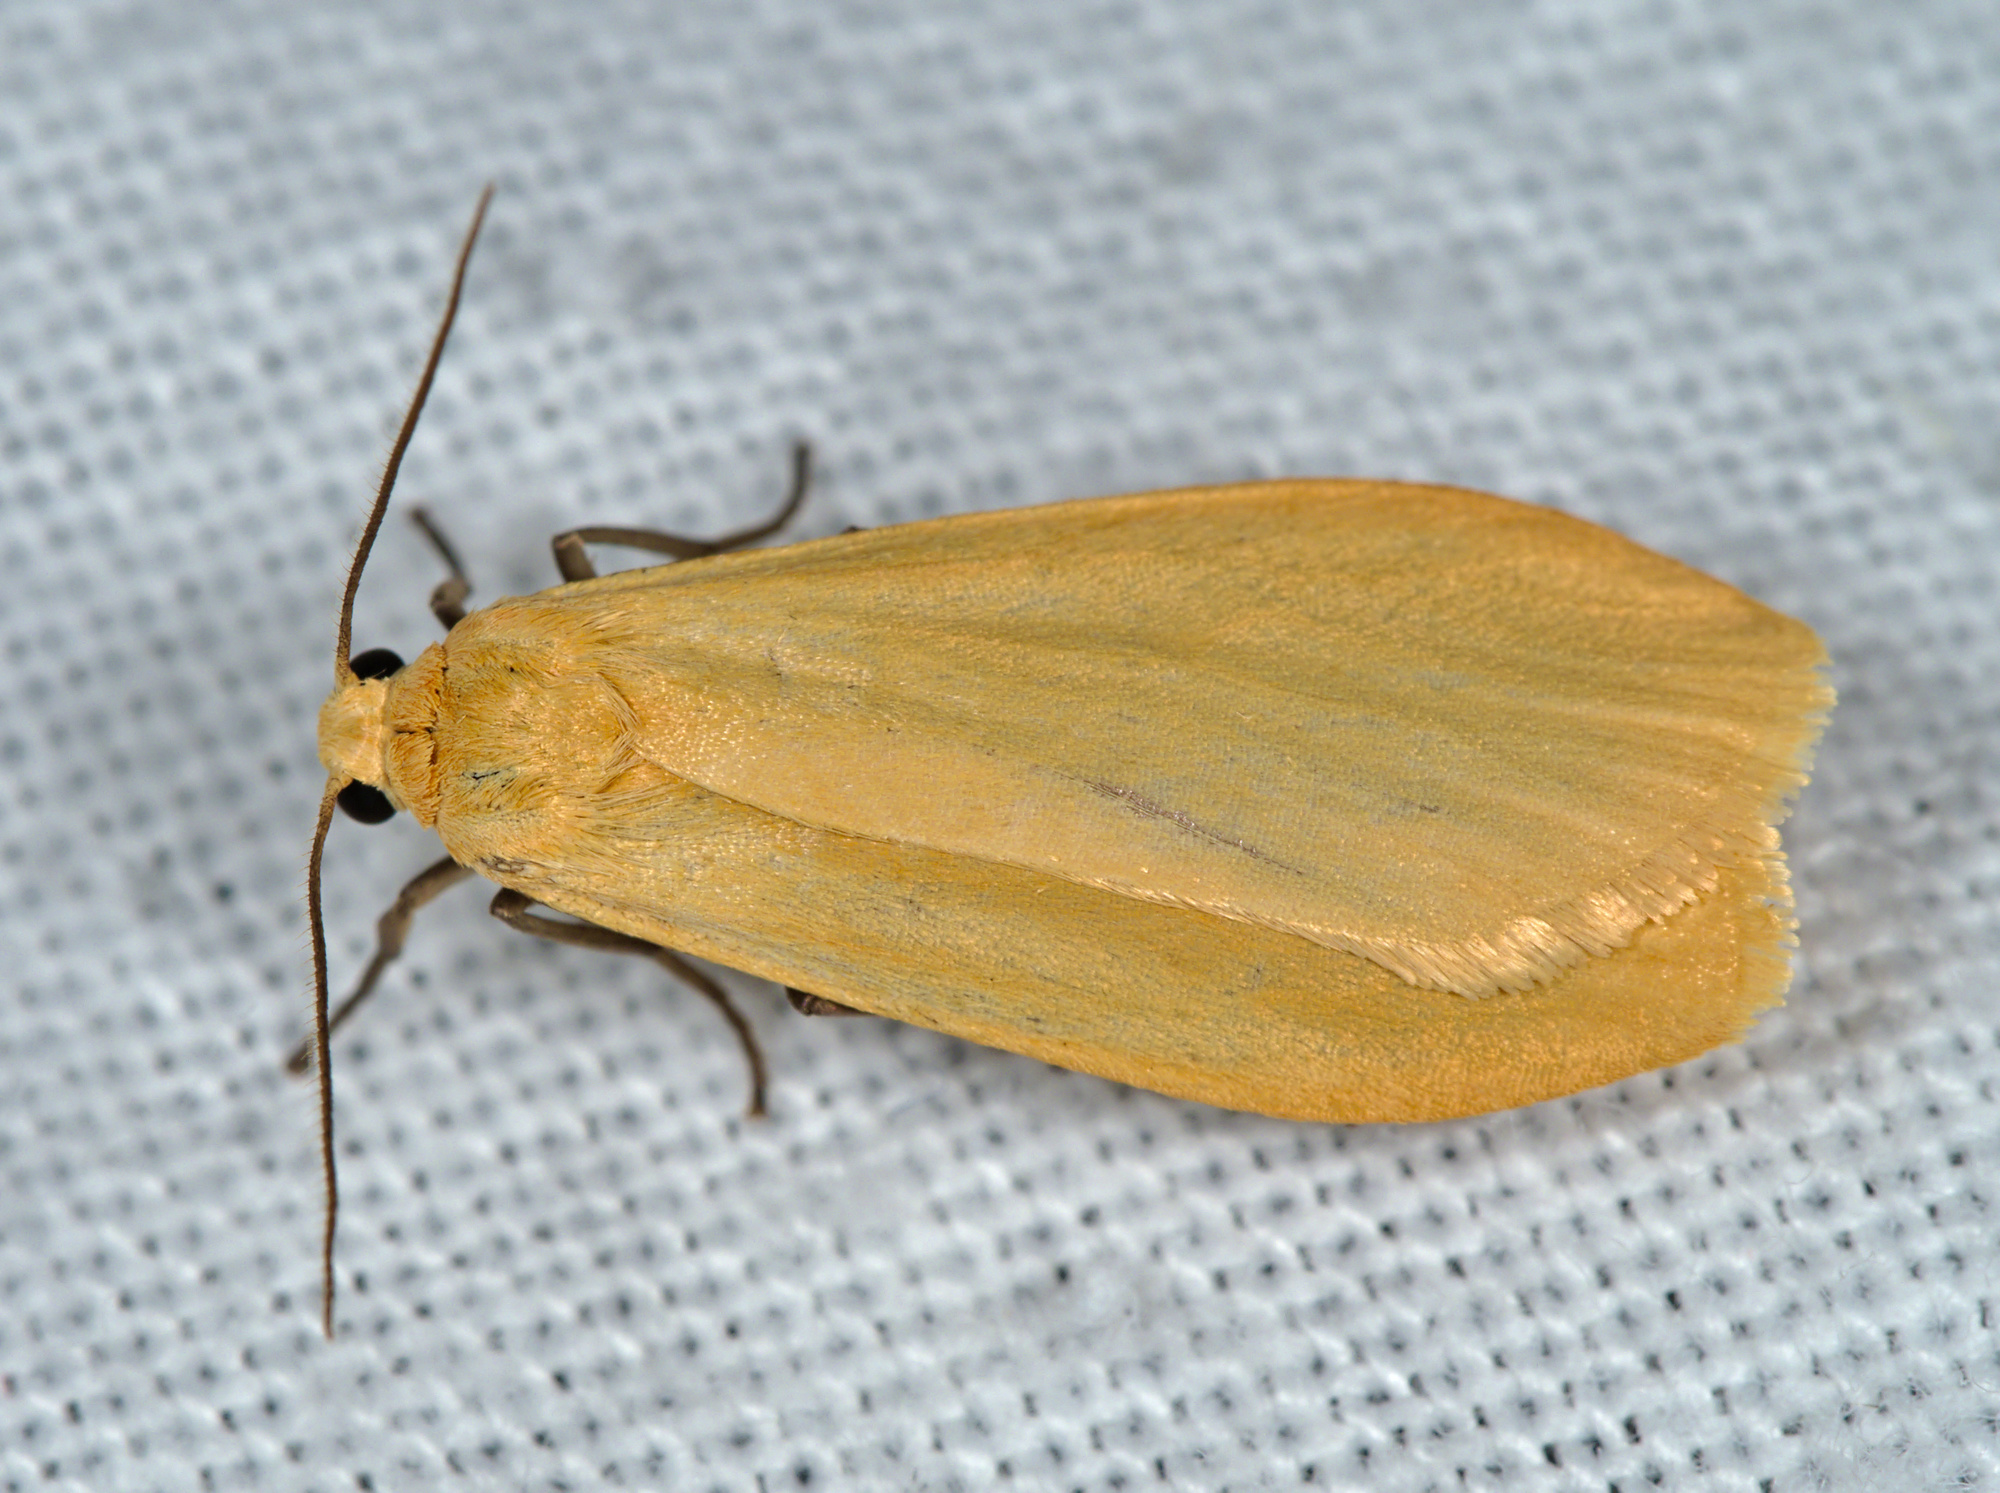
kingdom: Animalia
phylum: Arthropoda
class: Insecta
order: Lepidoptera
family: Erebidae
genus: Wittia
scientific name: Wittia sororcula
